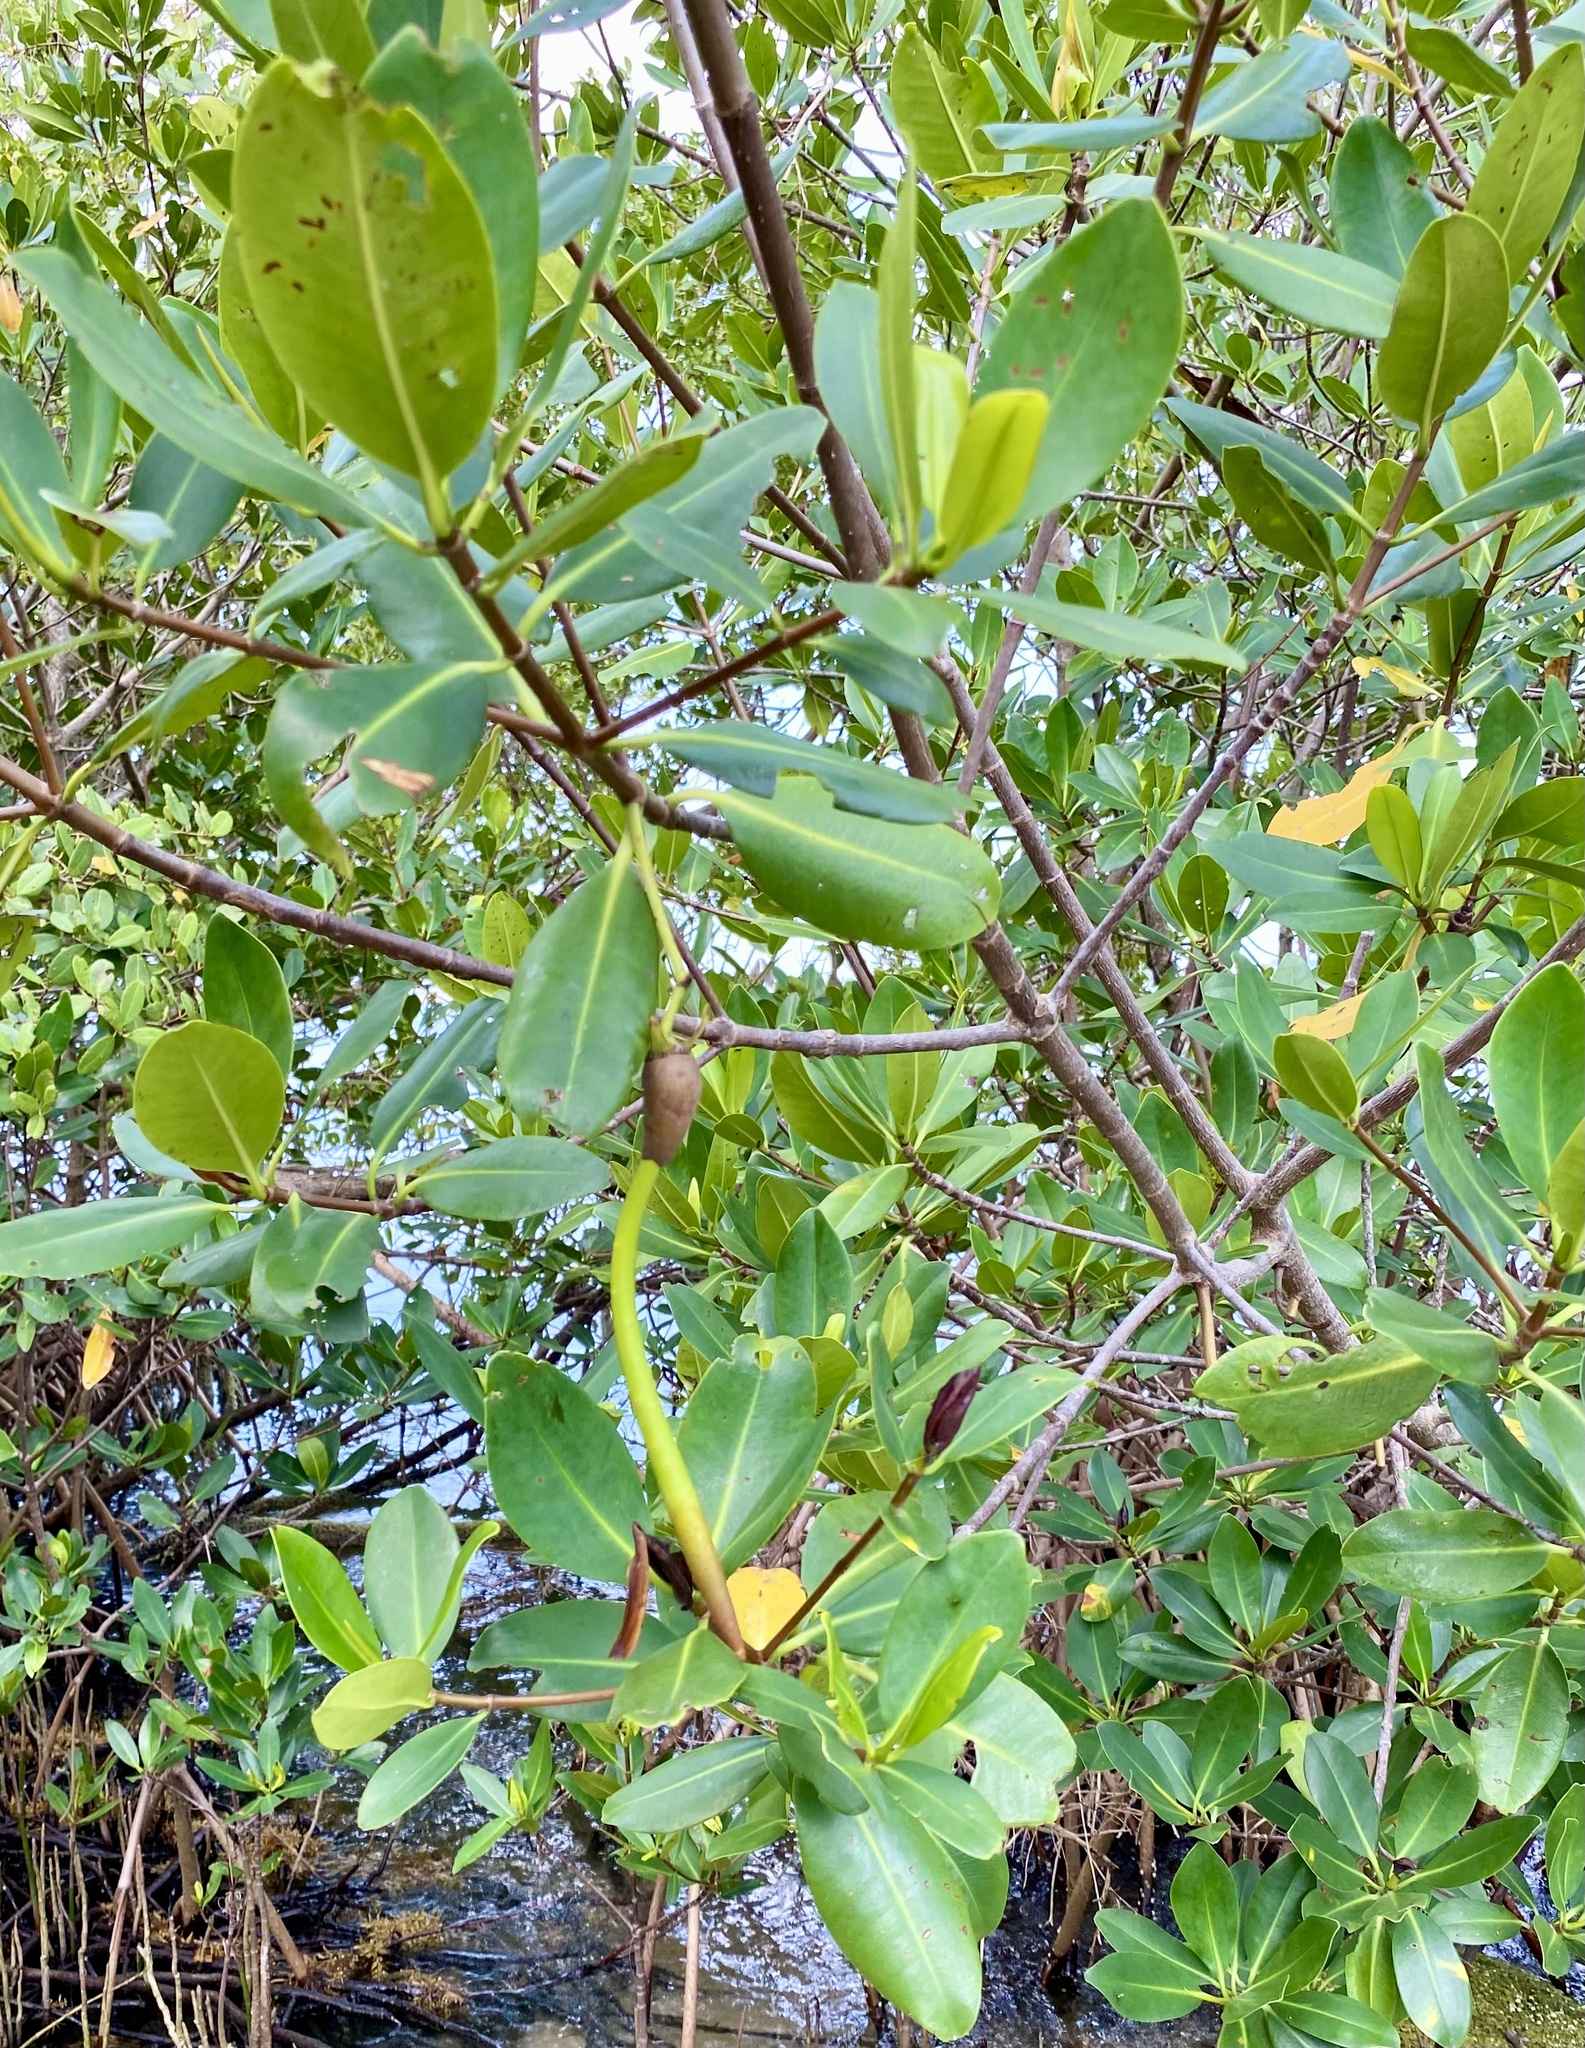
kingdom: Plantae
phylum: Tracheophyta
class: Magnoliopsida
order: Malpighiales
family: Rhizophoraceae
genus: Rhizophora
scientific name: Rhizophora mangle
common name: Red mangrove
